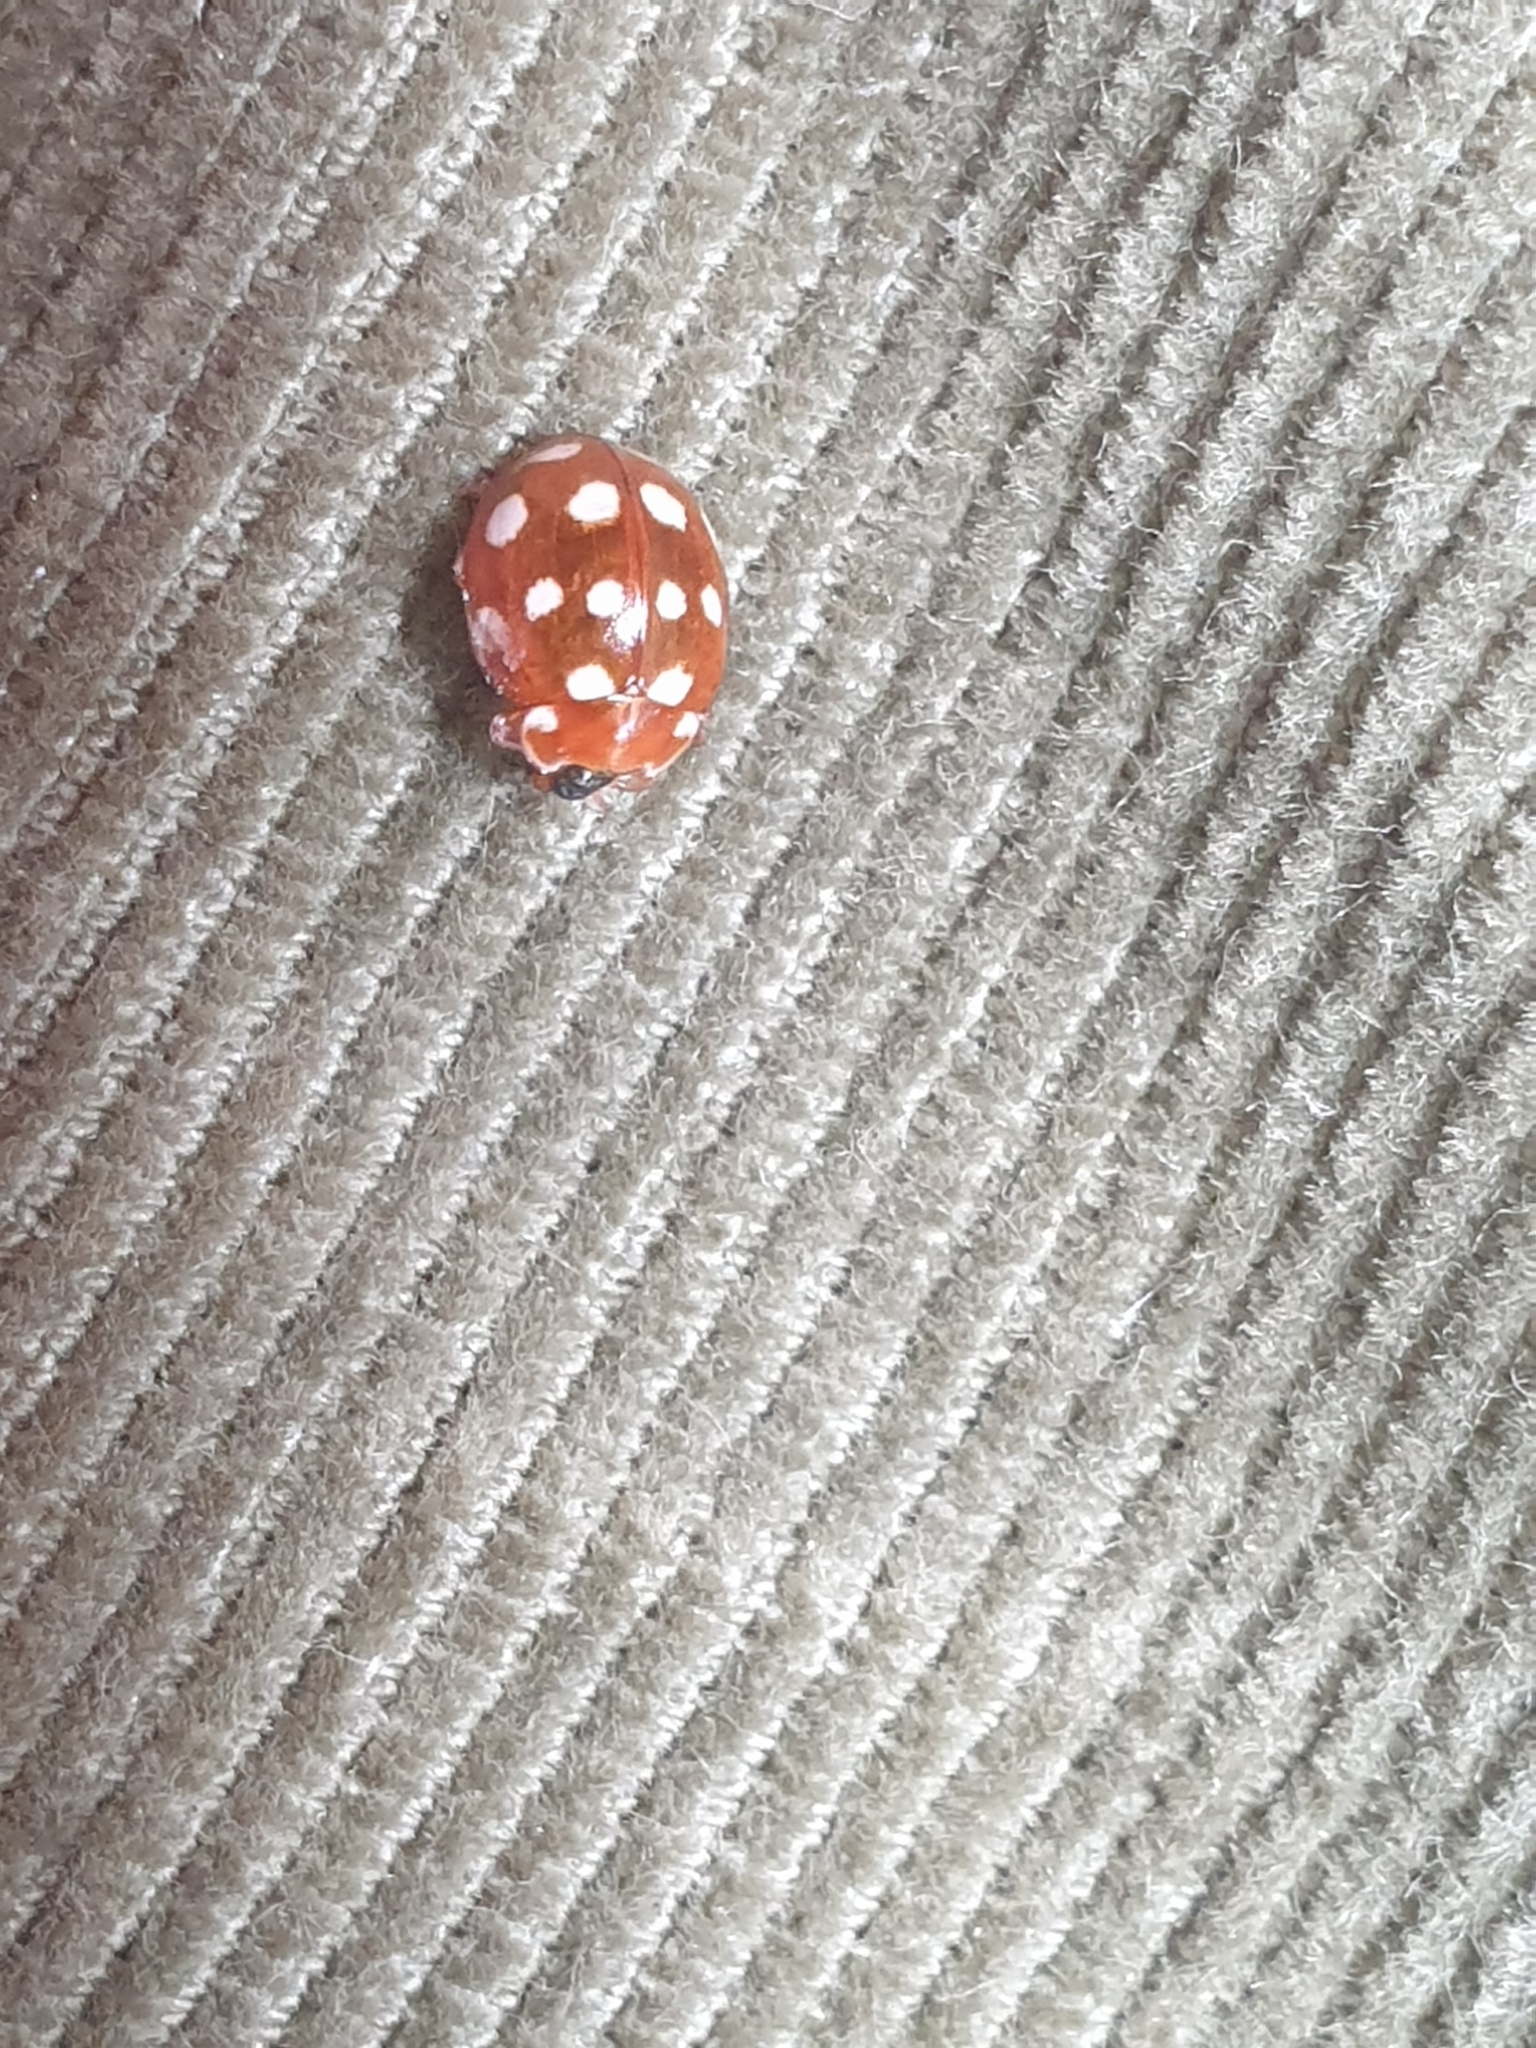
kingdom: Animalia
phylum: Arthropoda
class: Insecta
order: Coleoptera
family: Coccinellidae
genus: Calvia
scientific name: Calvia quatuordecimguttata
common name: Cream-spot ladybird
